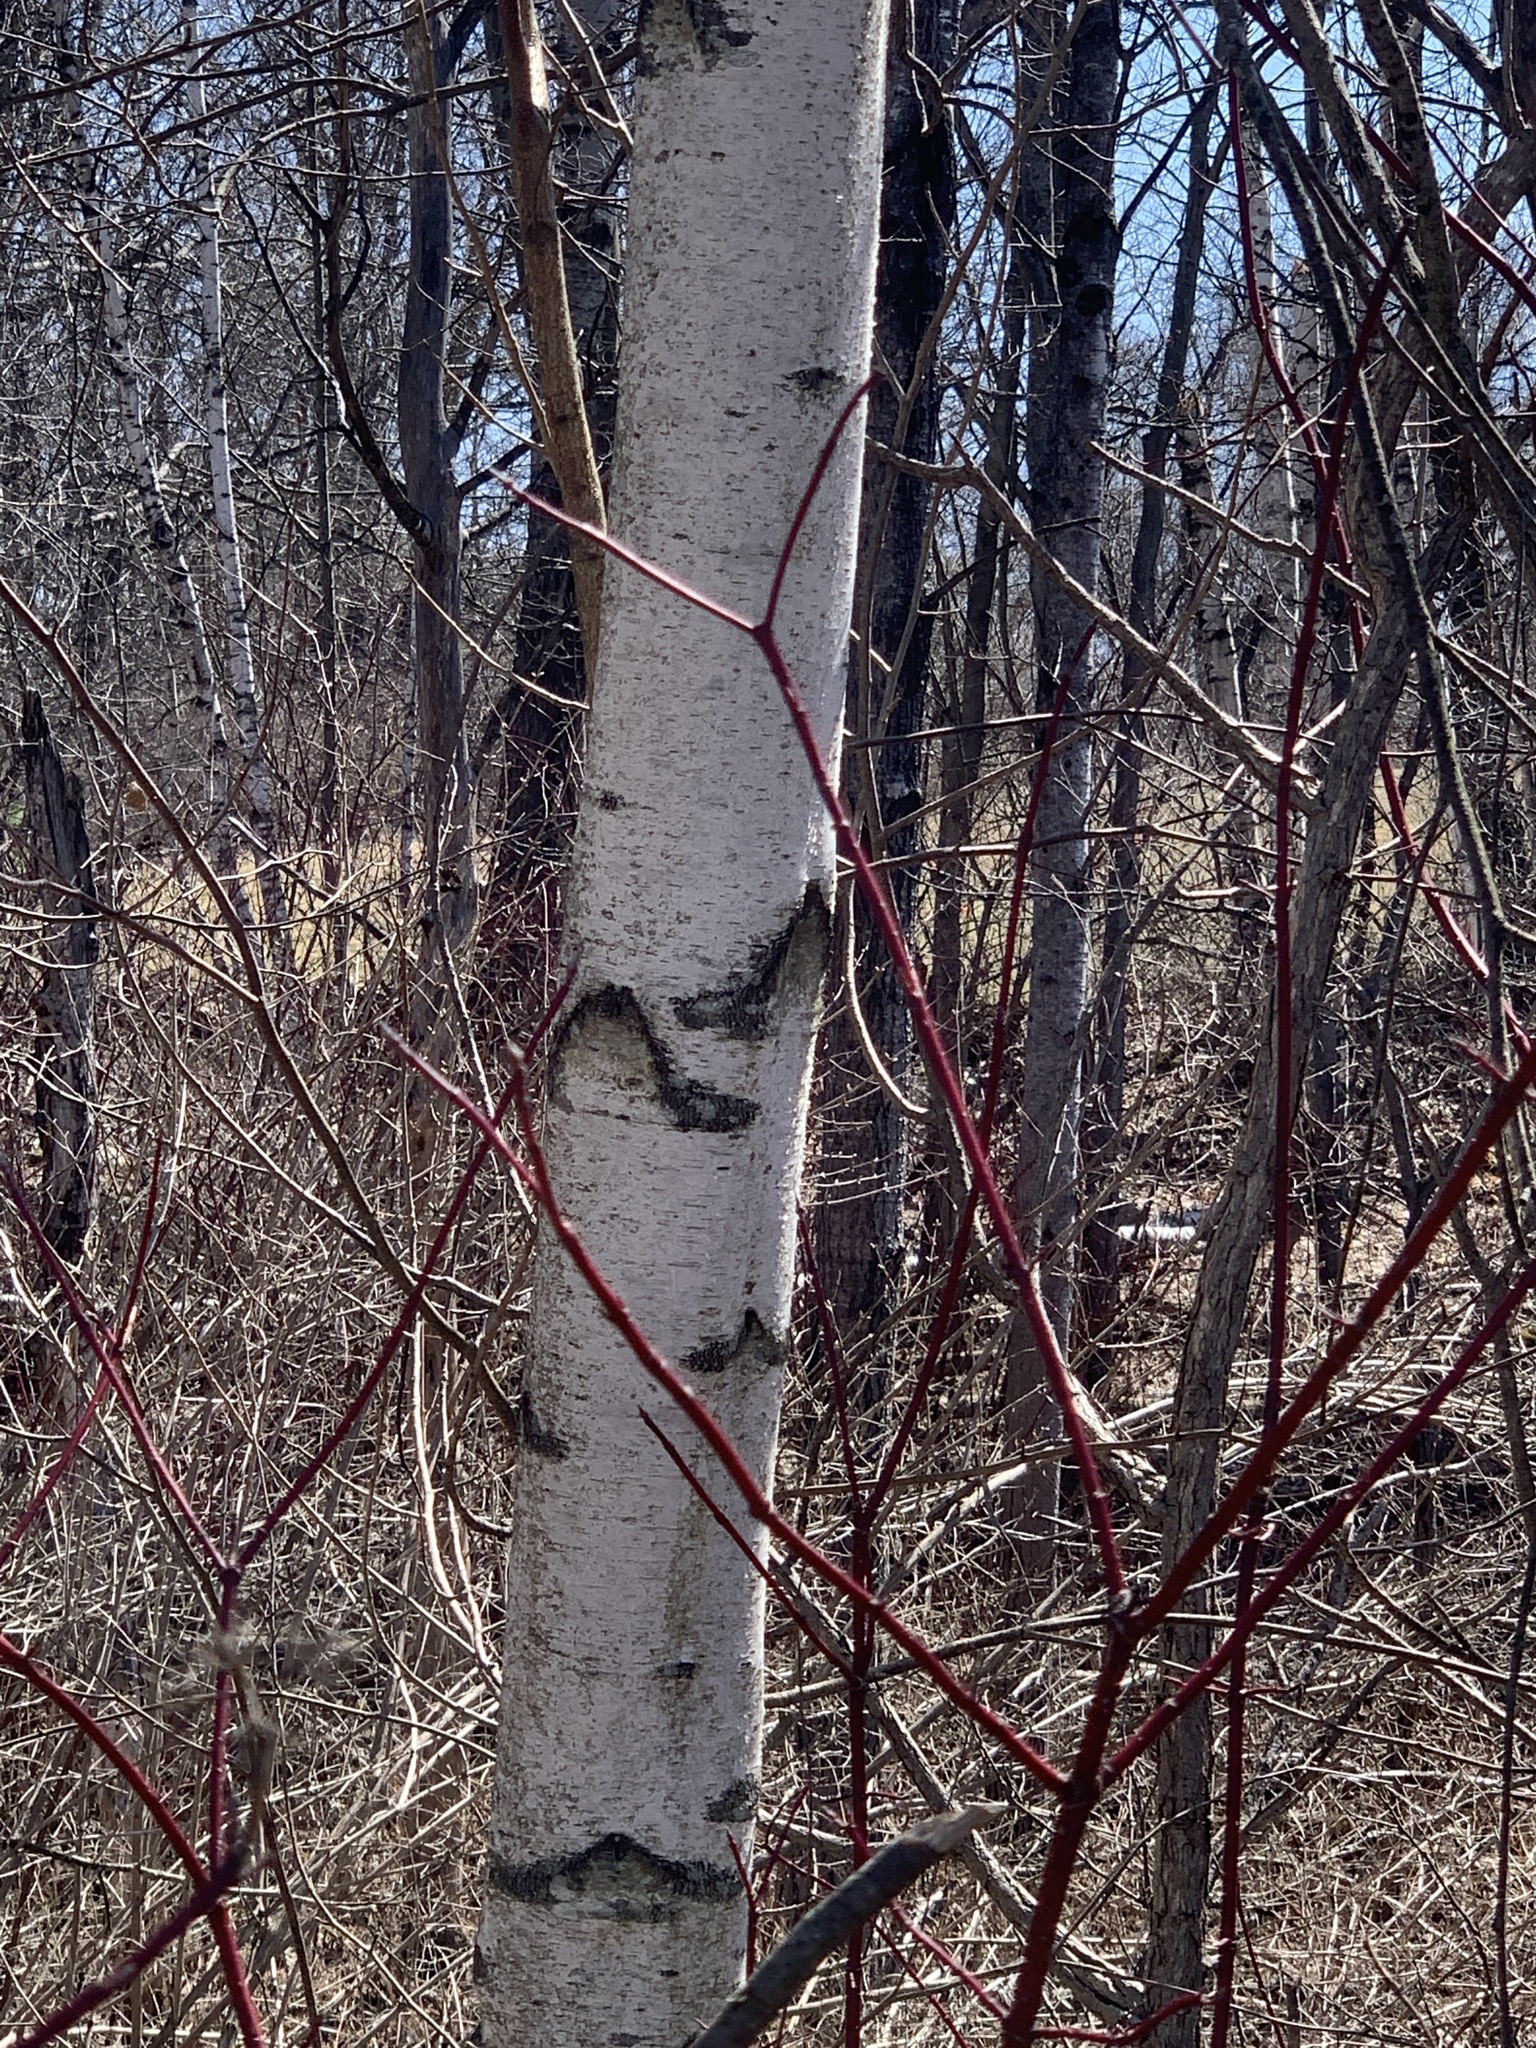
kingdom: Plantae
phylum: Tracheophyta
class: Magnoliopsida
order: Fagales
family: Betulaceae
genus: Betula
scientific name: Betula populifolia
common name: Fire birch
